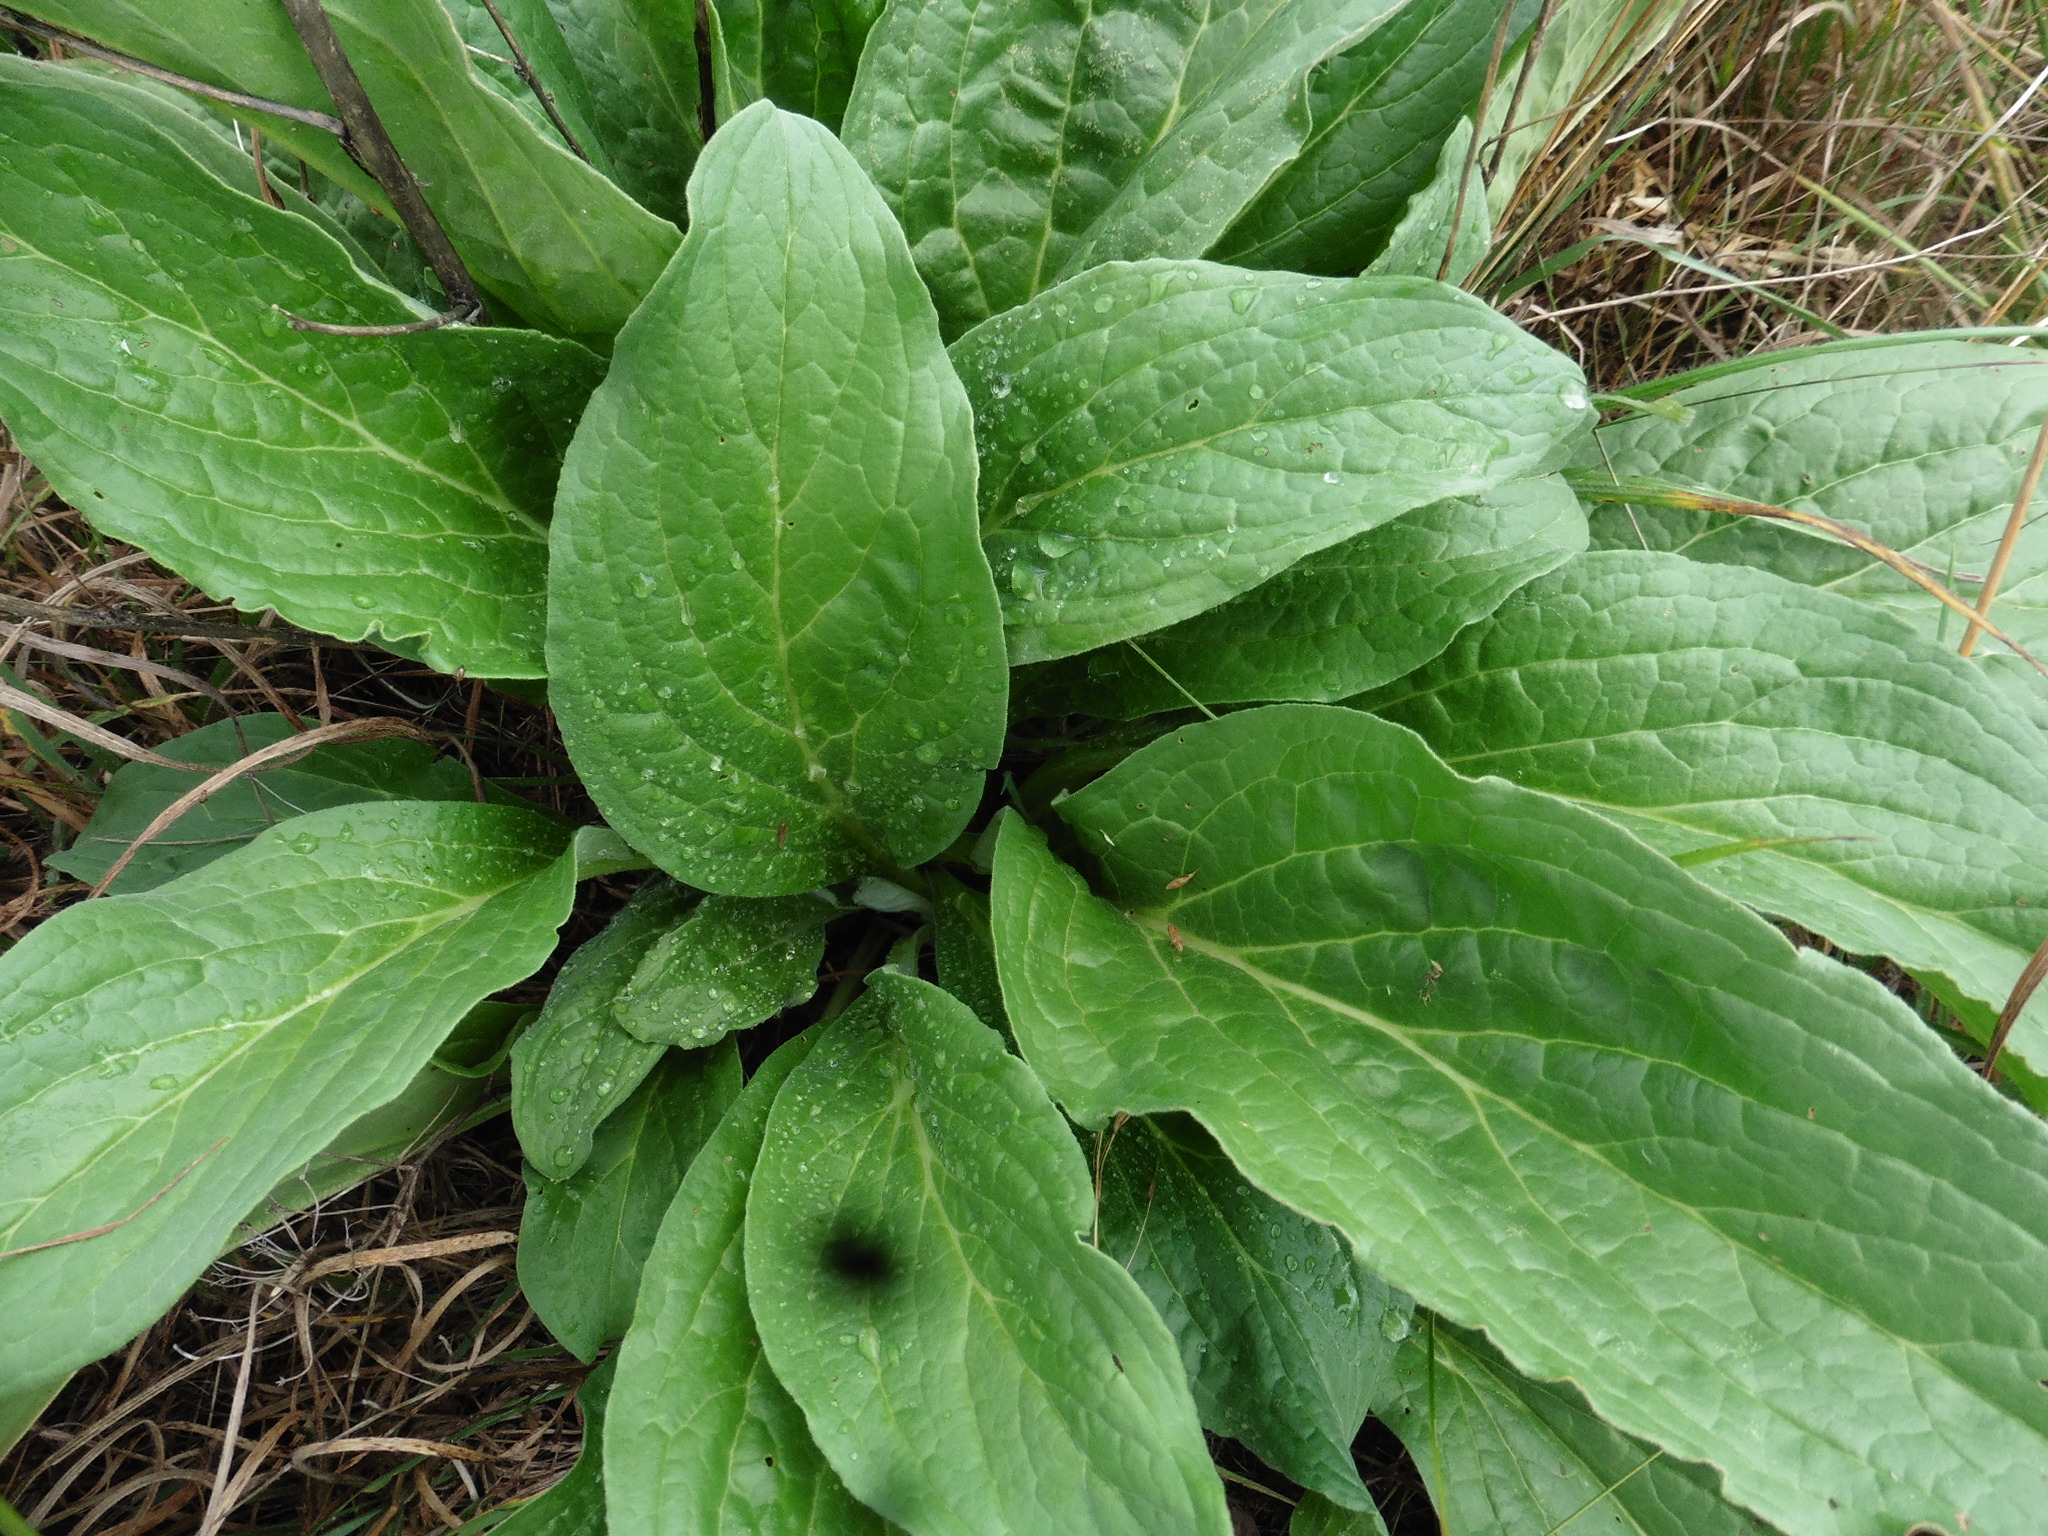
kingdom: Plantae
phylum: Tracheophyta
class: Magnoliopsida
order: Boraginales
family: Boraginaceae
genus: Cynoglossum
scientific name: Cynoglossum officinale
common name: Hound's-tongue
